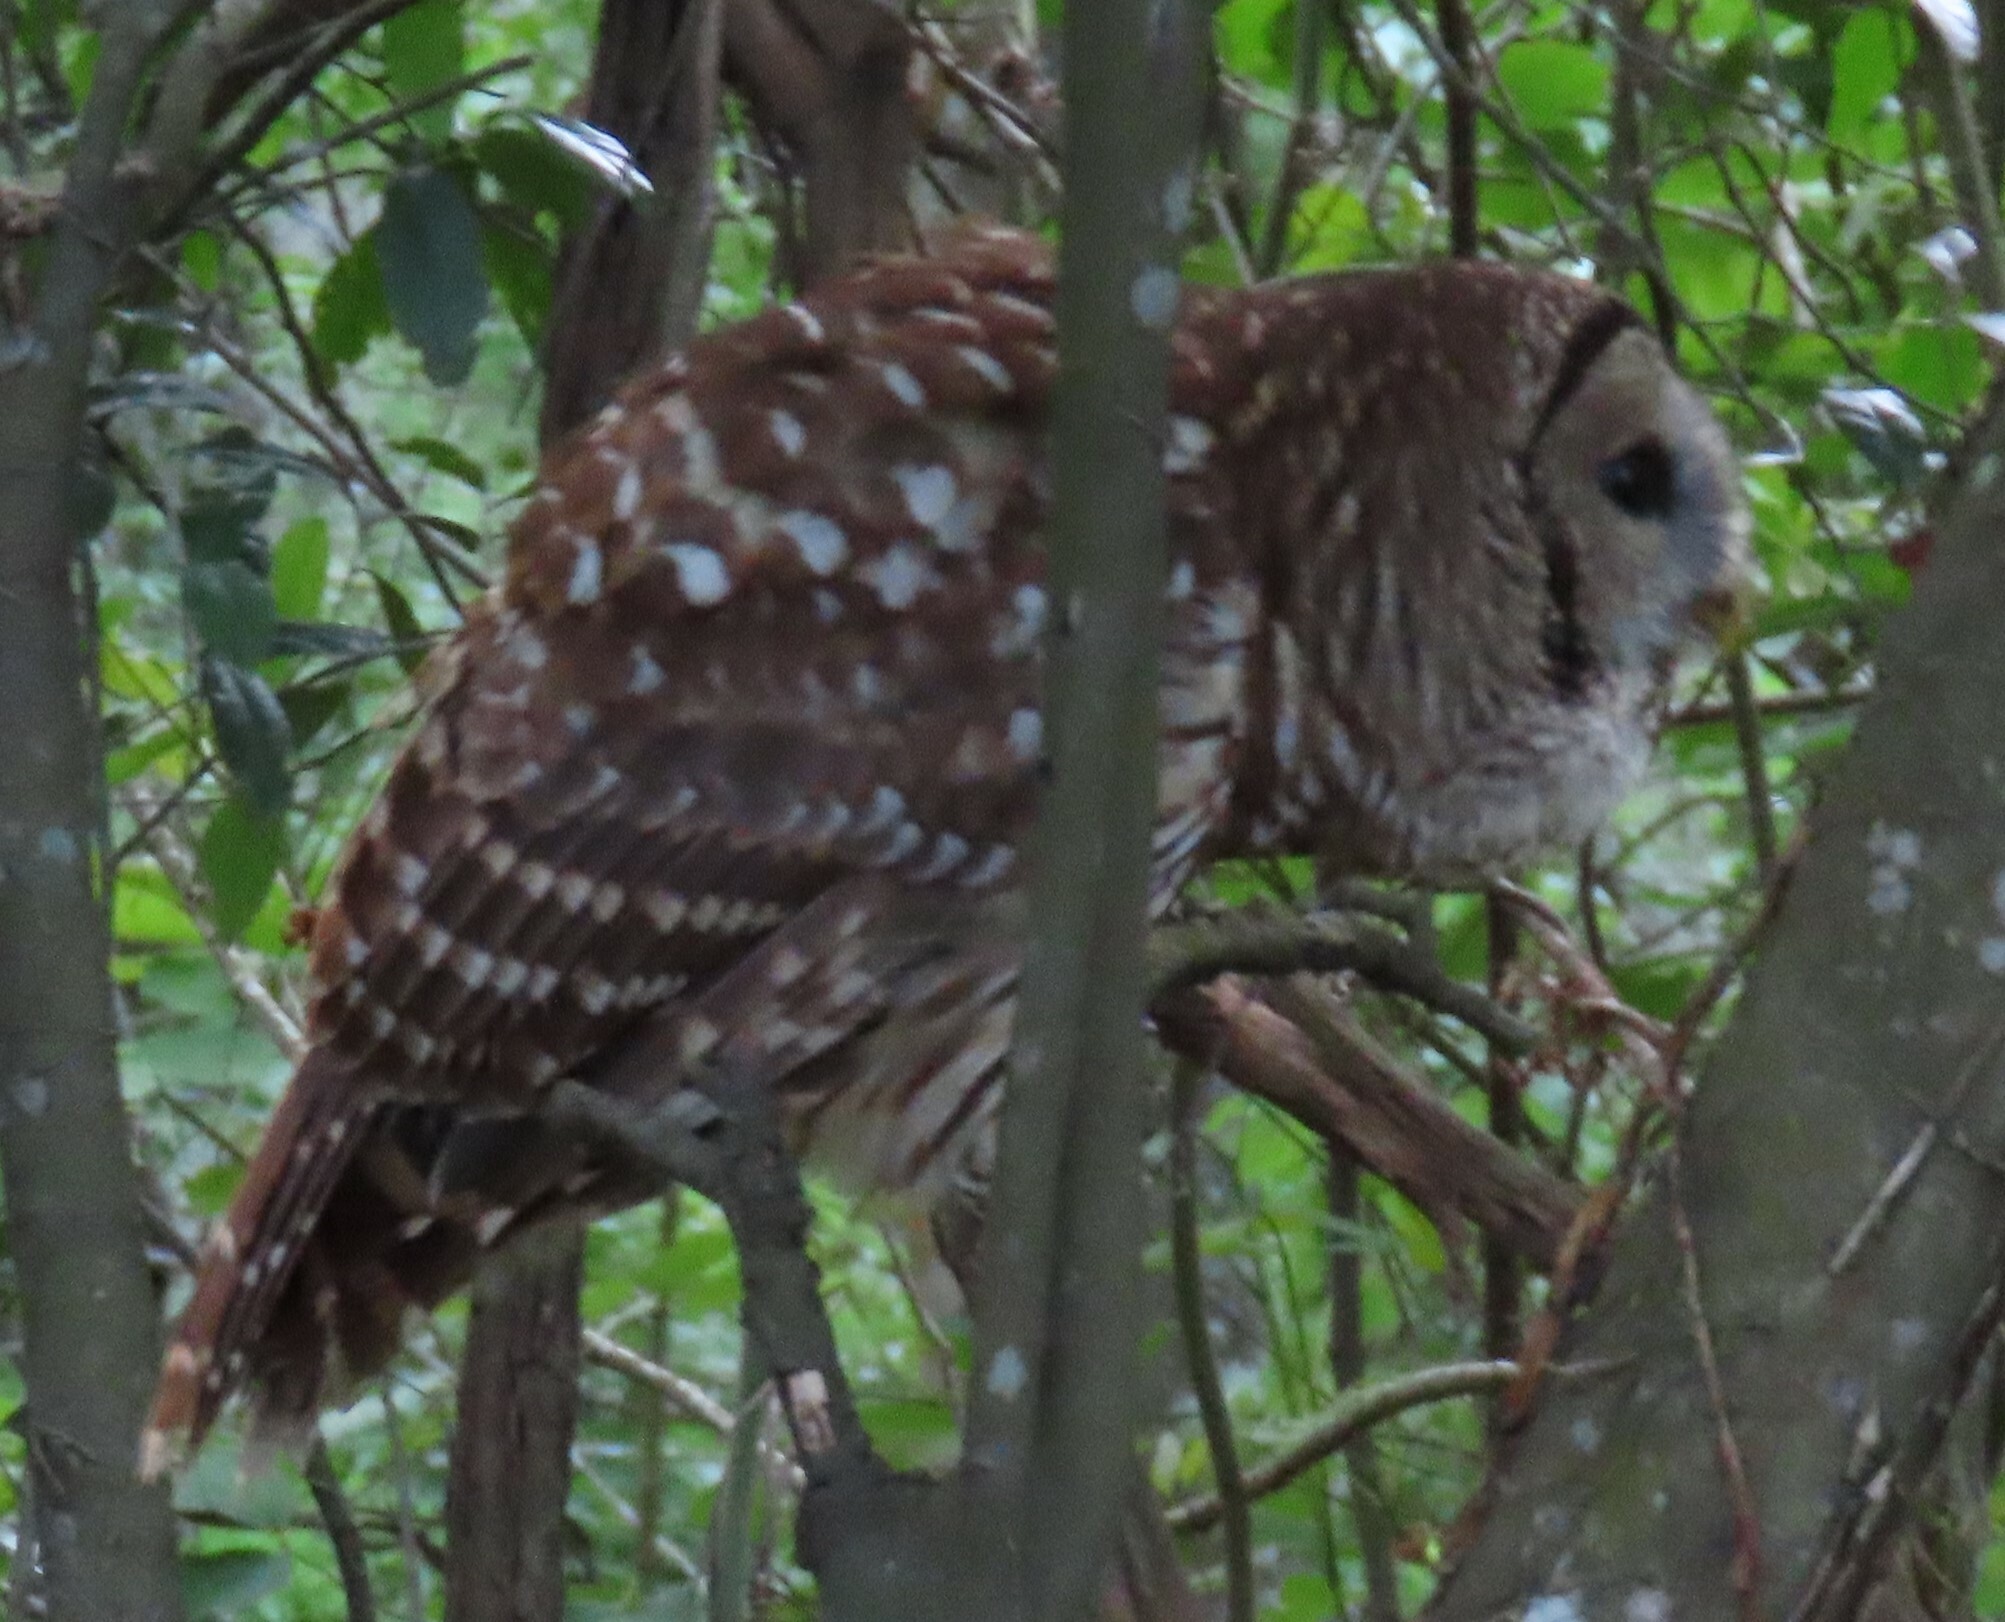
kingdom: Animalia
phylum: Chordata
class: Aves
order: Strigiformes
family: Strigidae
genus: Strix
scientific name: Strix varia
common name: Barred owl
